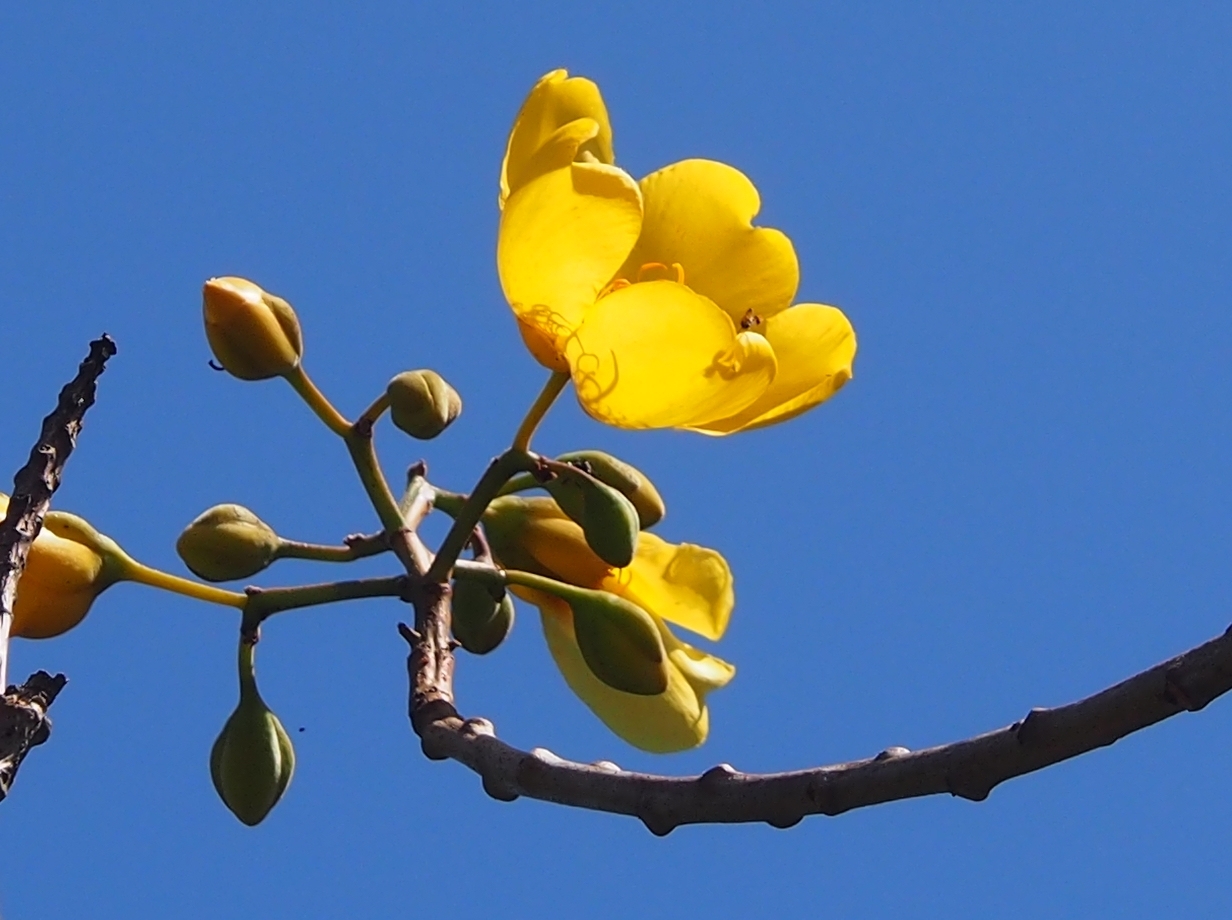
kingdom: Plantae
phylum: Tracheophyta
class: Magnoliopsida
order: Malvales
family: Cochlospermaceae
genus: Cochlospermum
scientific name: Cochlospermum vitifolium
